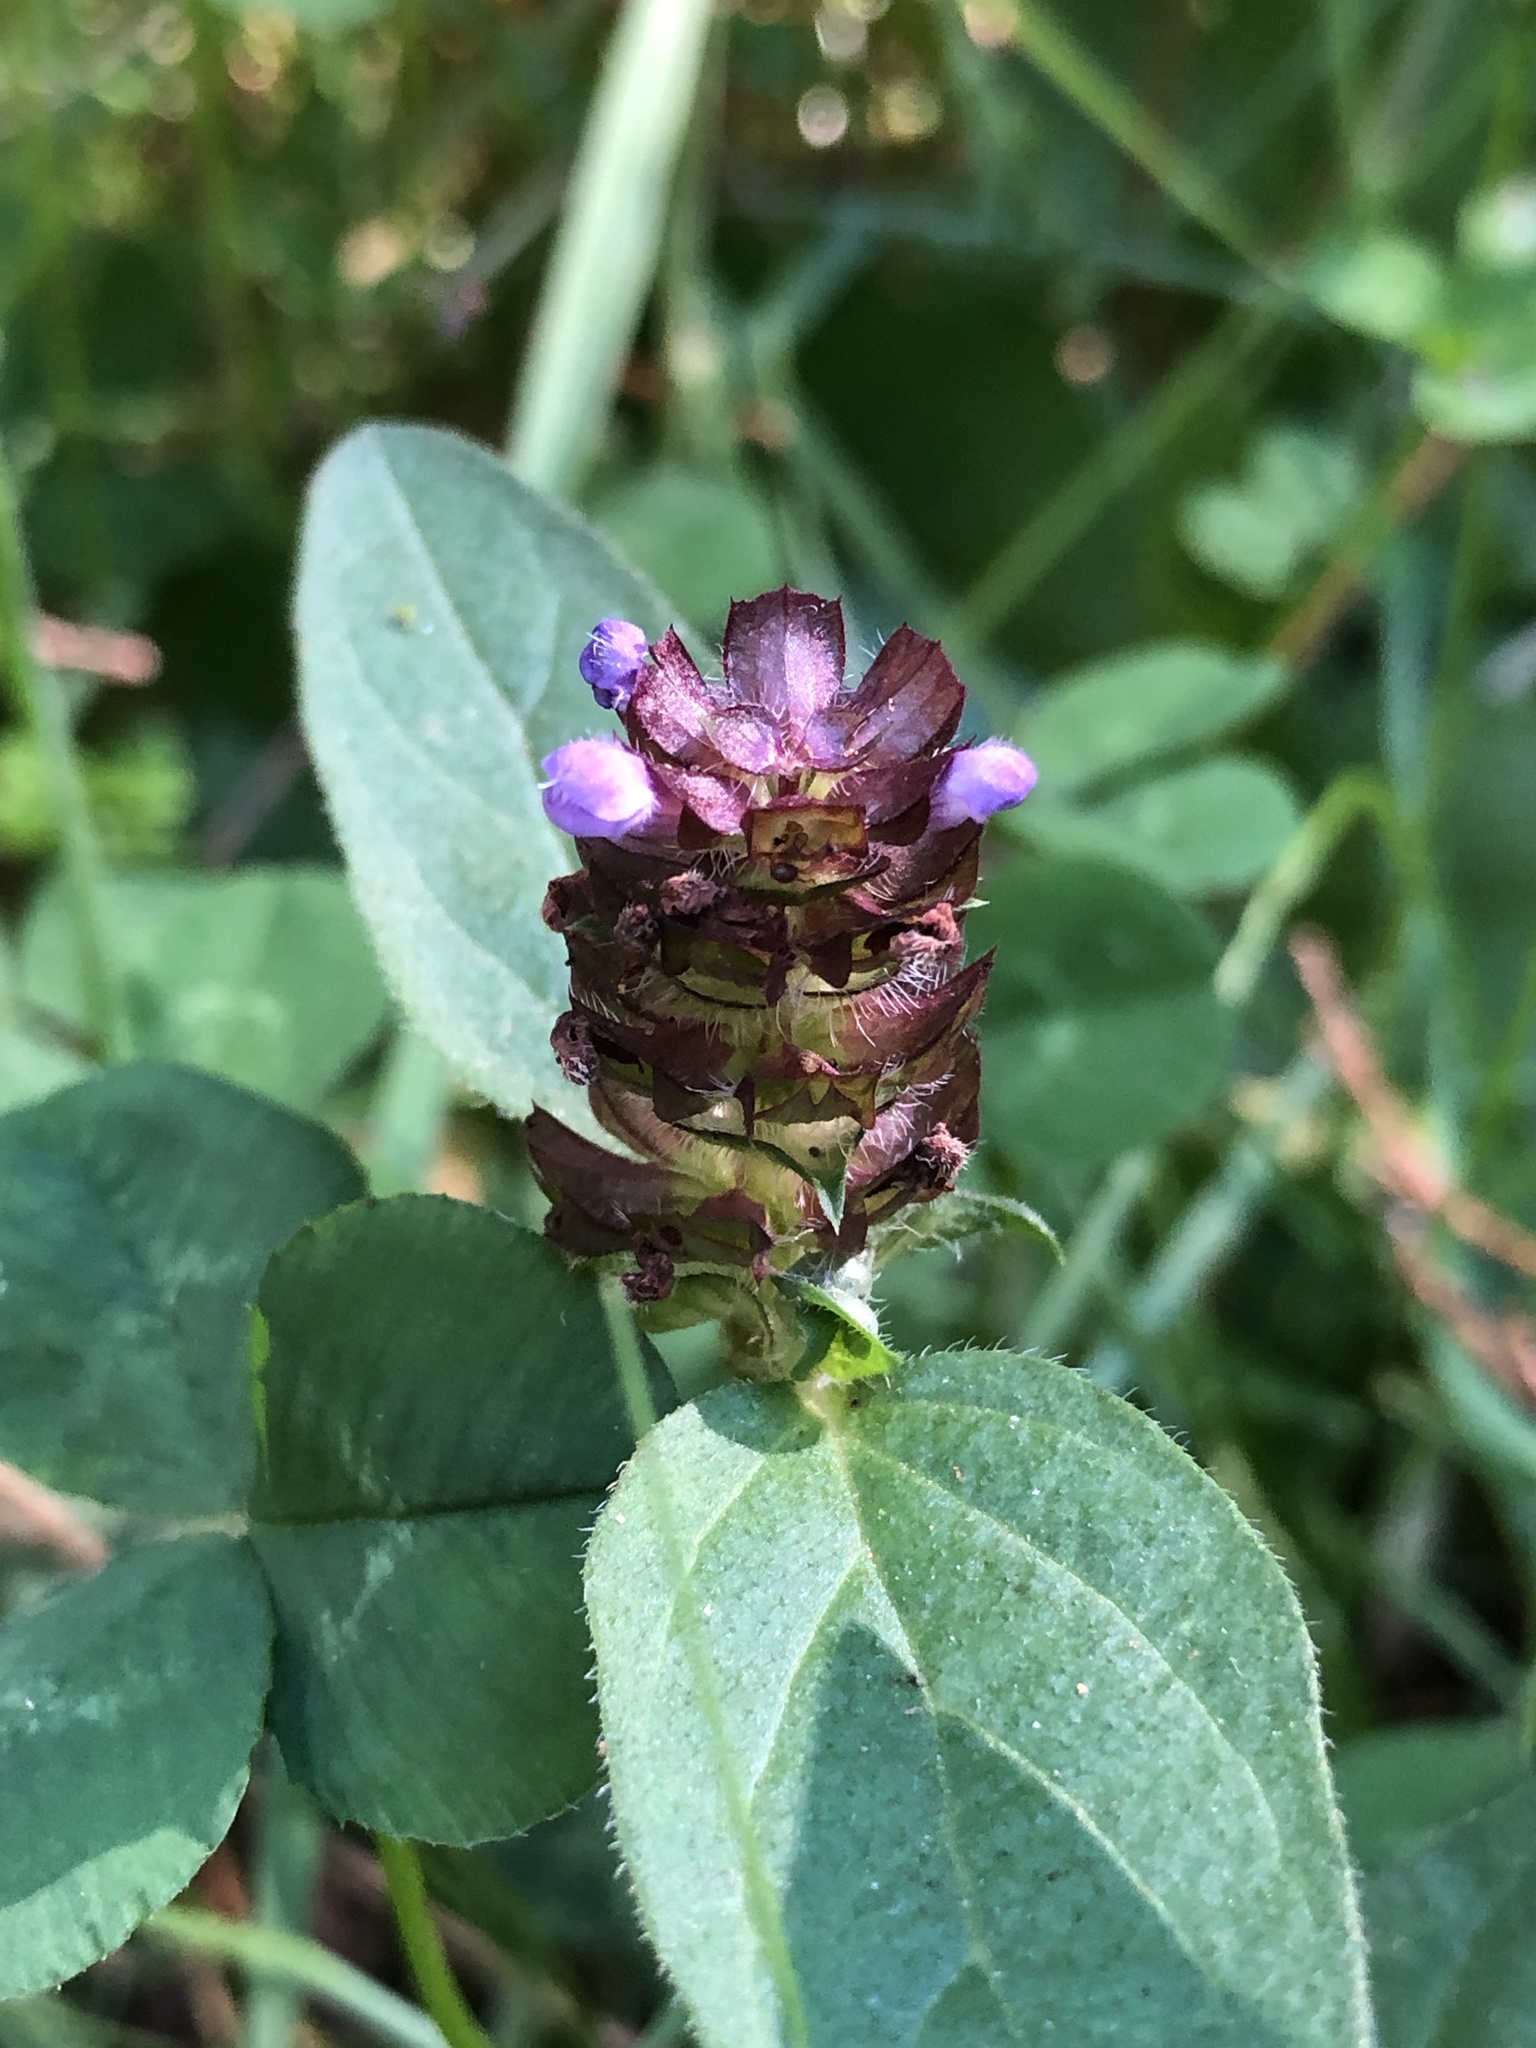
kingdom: Plantae
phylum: Tracheophyta
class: Magnoliopsida
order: Lamiales
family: Lamiaceae
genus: Prunella
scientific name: Prunella vulgaris
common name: Heal-all
